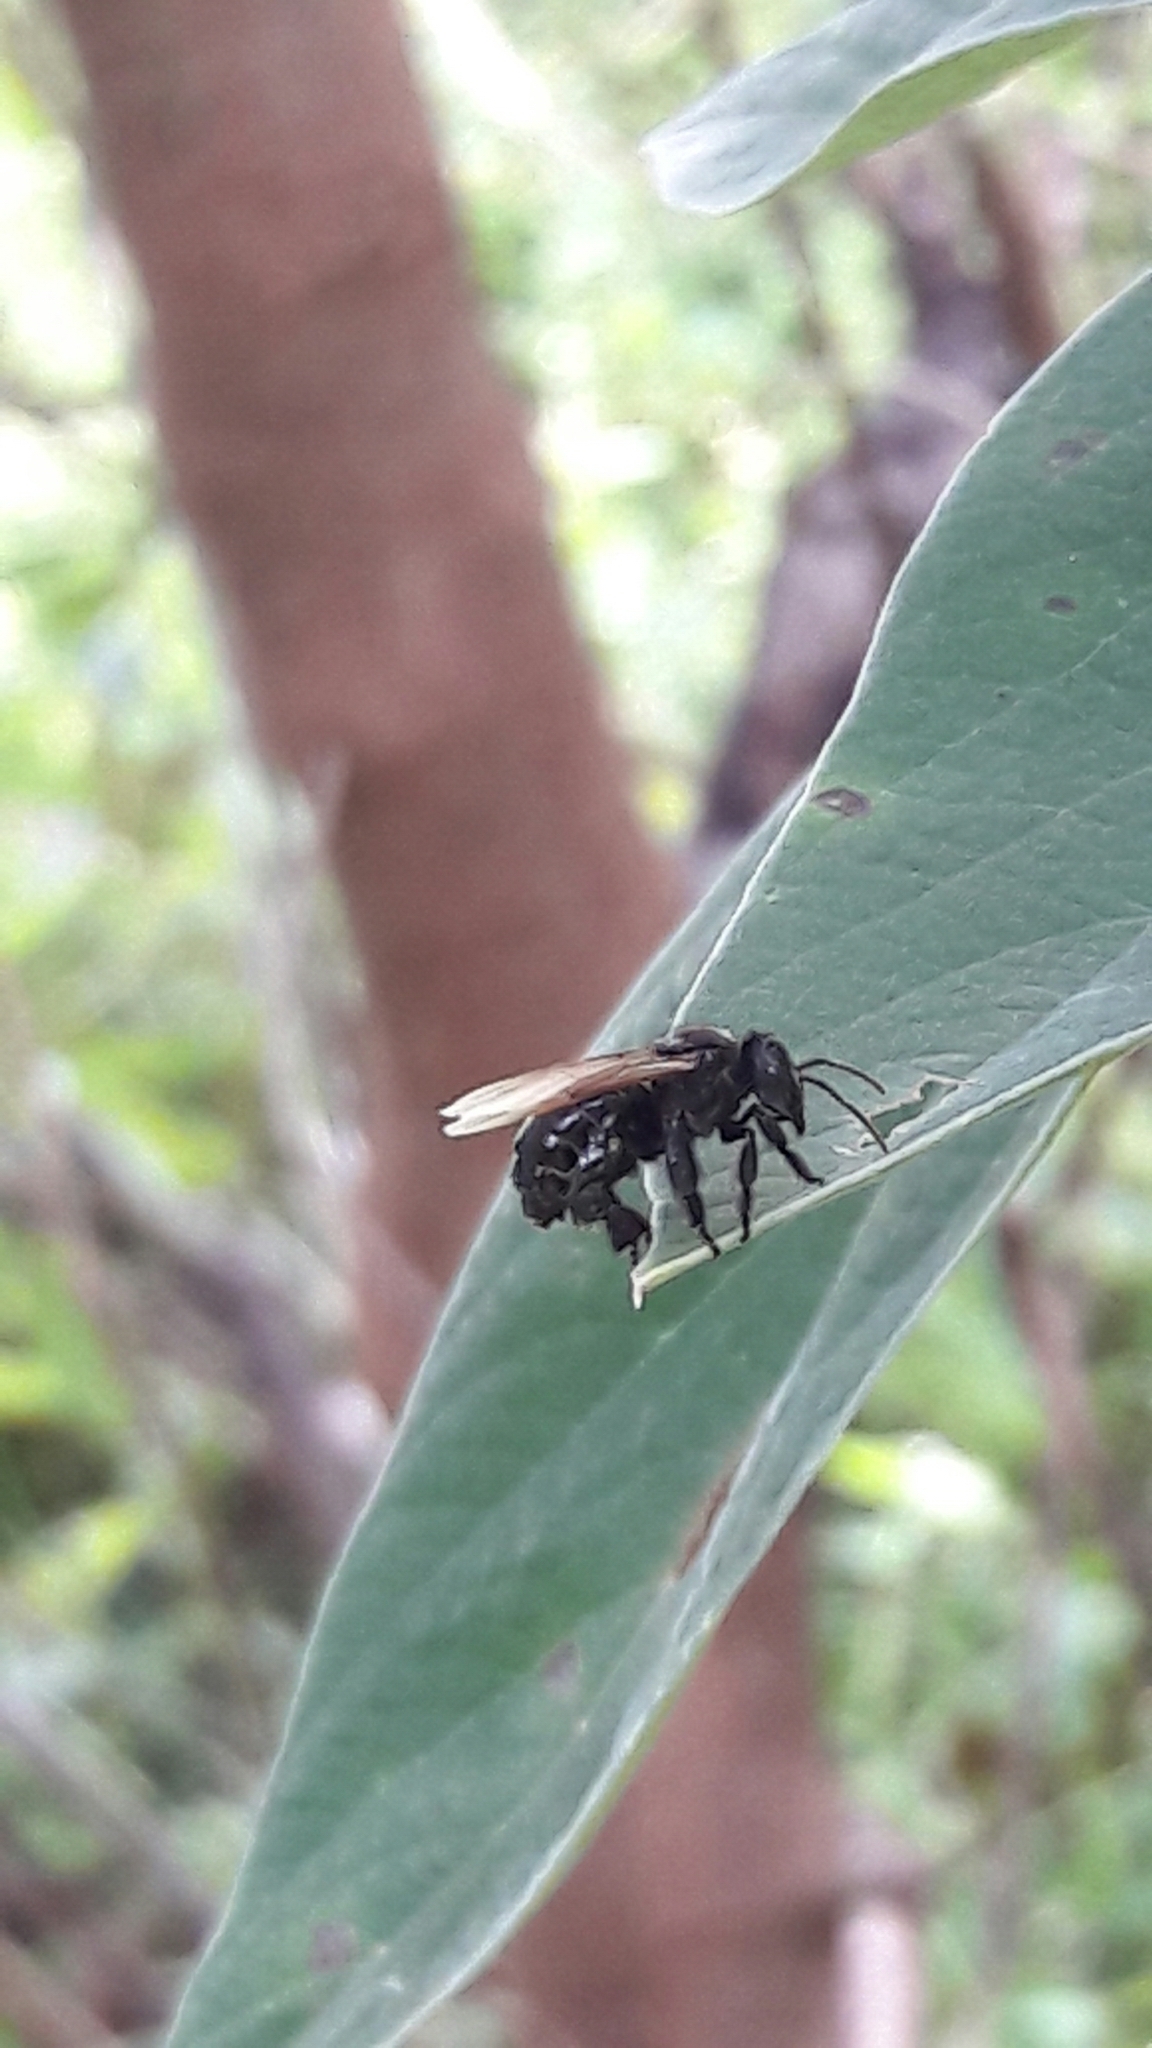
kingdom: Animalia
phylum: Arthropoda
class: Insecta
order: Hymenoptera
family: Apidae
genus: Trigona
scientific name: Trigona hyalinata
